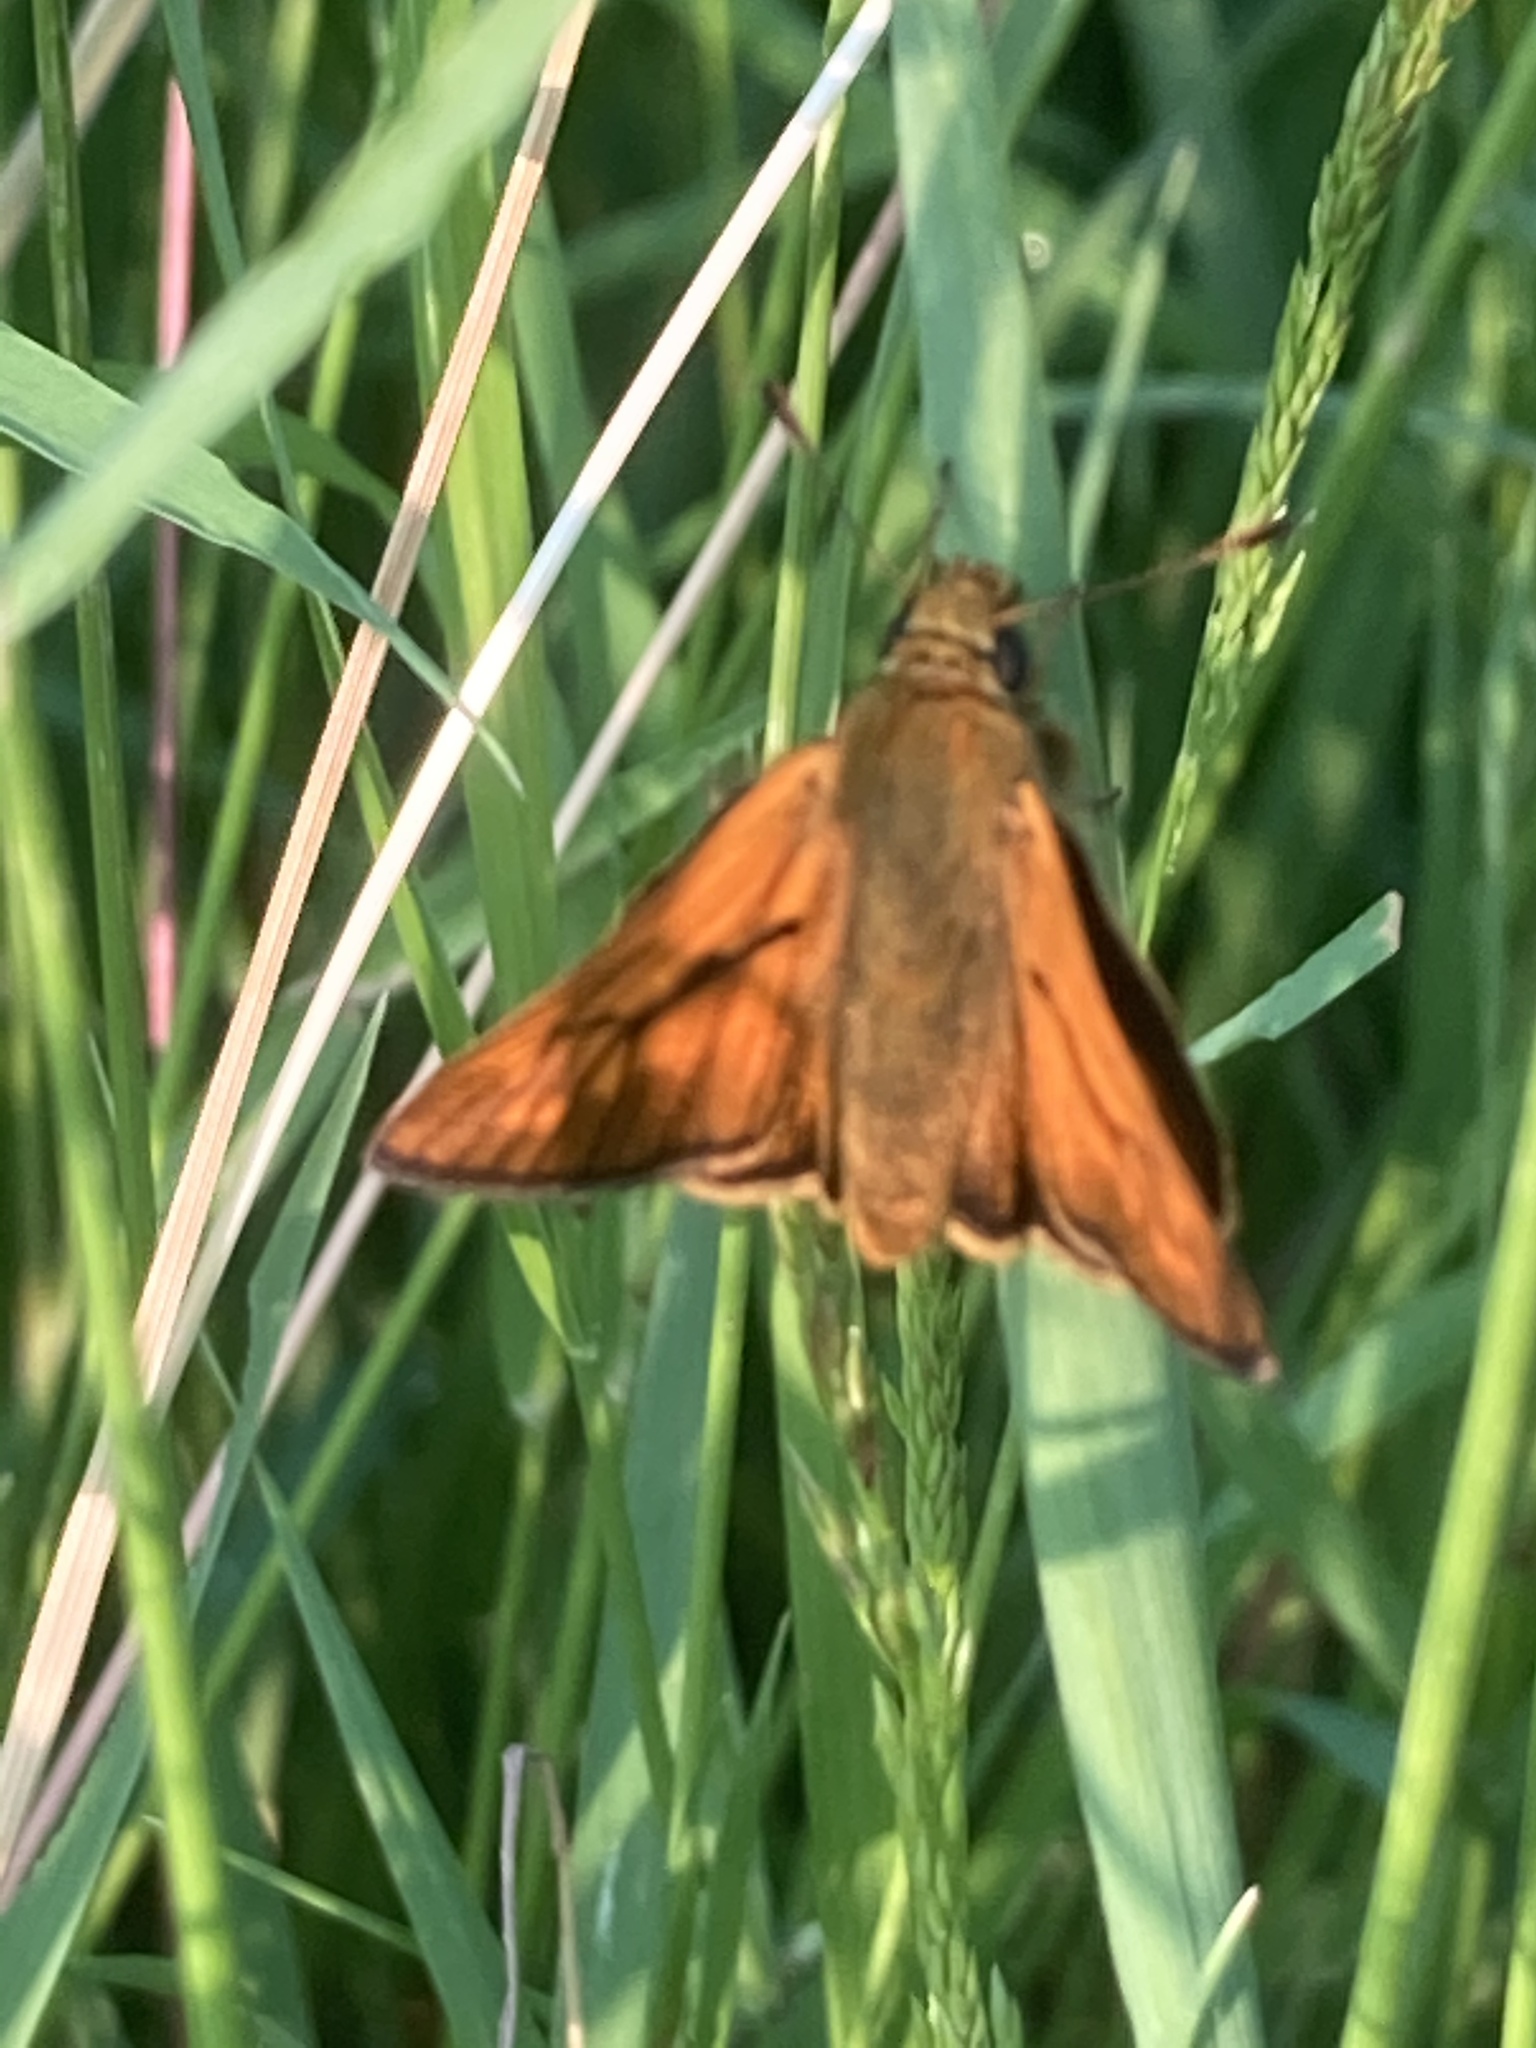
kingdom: Animalia
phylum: Arthropoda
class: Insecta
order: Lepidoptera
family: Hesperiidae
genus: Ochlodes
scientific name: Ochlodes venata
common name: Large skipper
